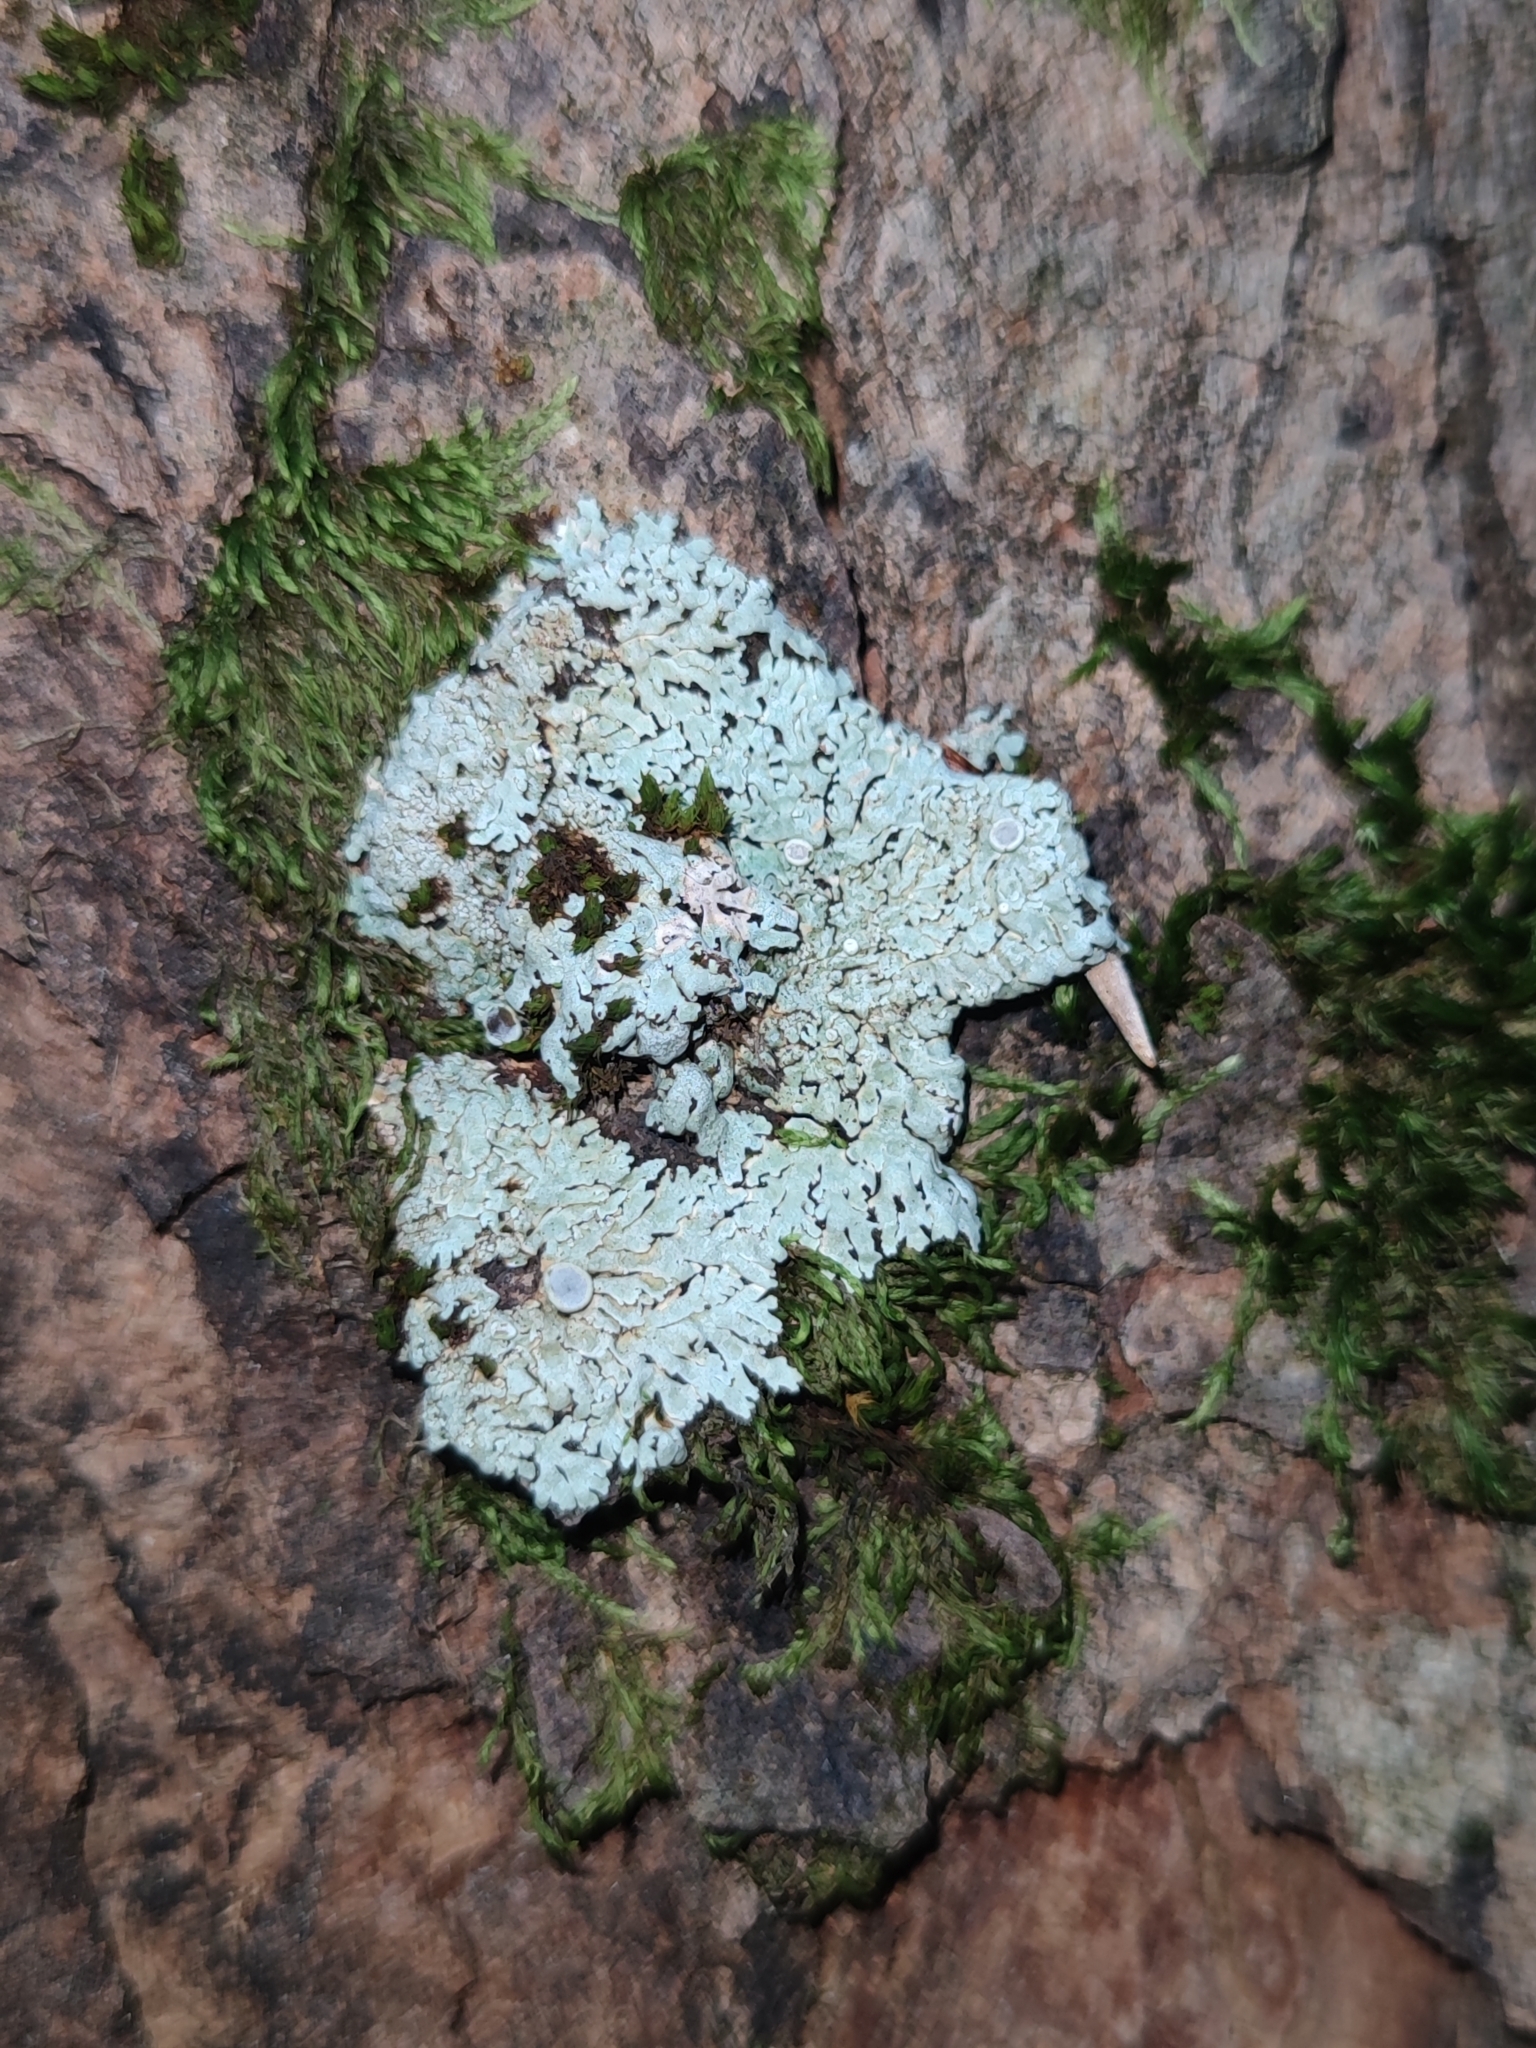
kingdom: Fungi
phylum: Ascomycota
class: Lecanoromycetes
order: Caliciales
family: Physciaceae
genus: Physcia
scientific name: Physcia aipolia
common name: Hoary rosette lichen
